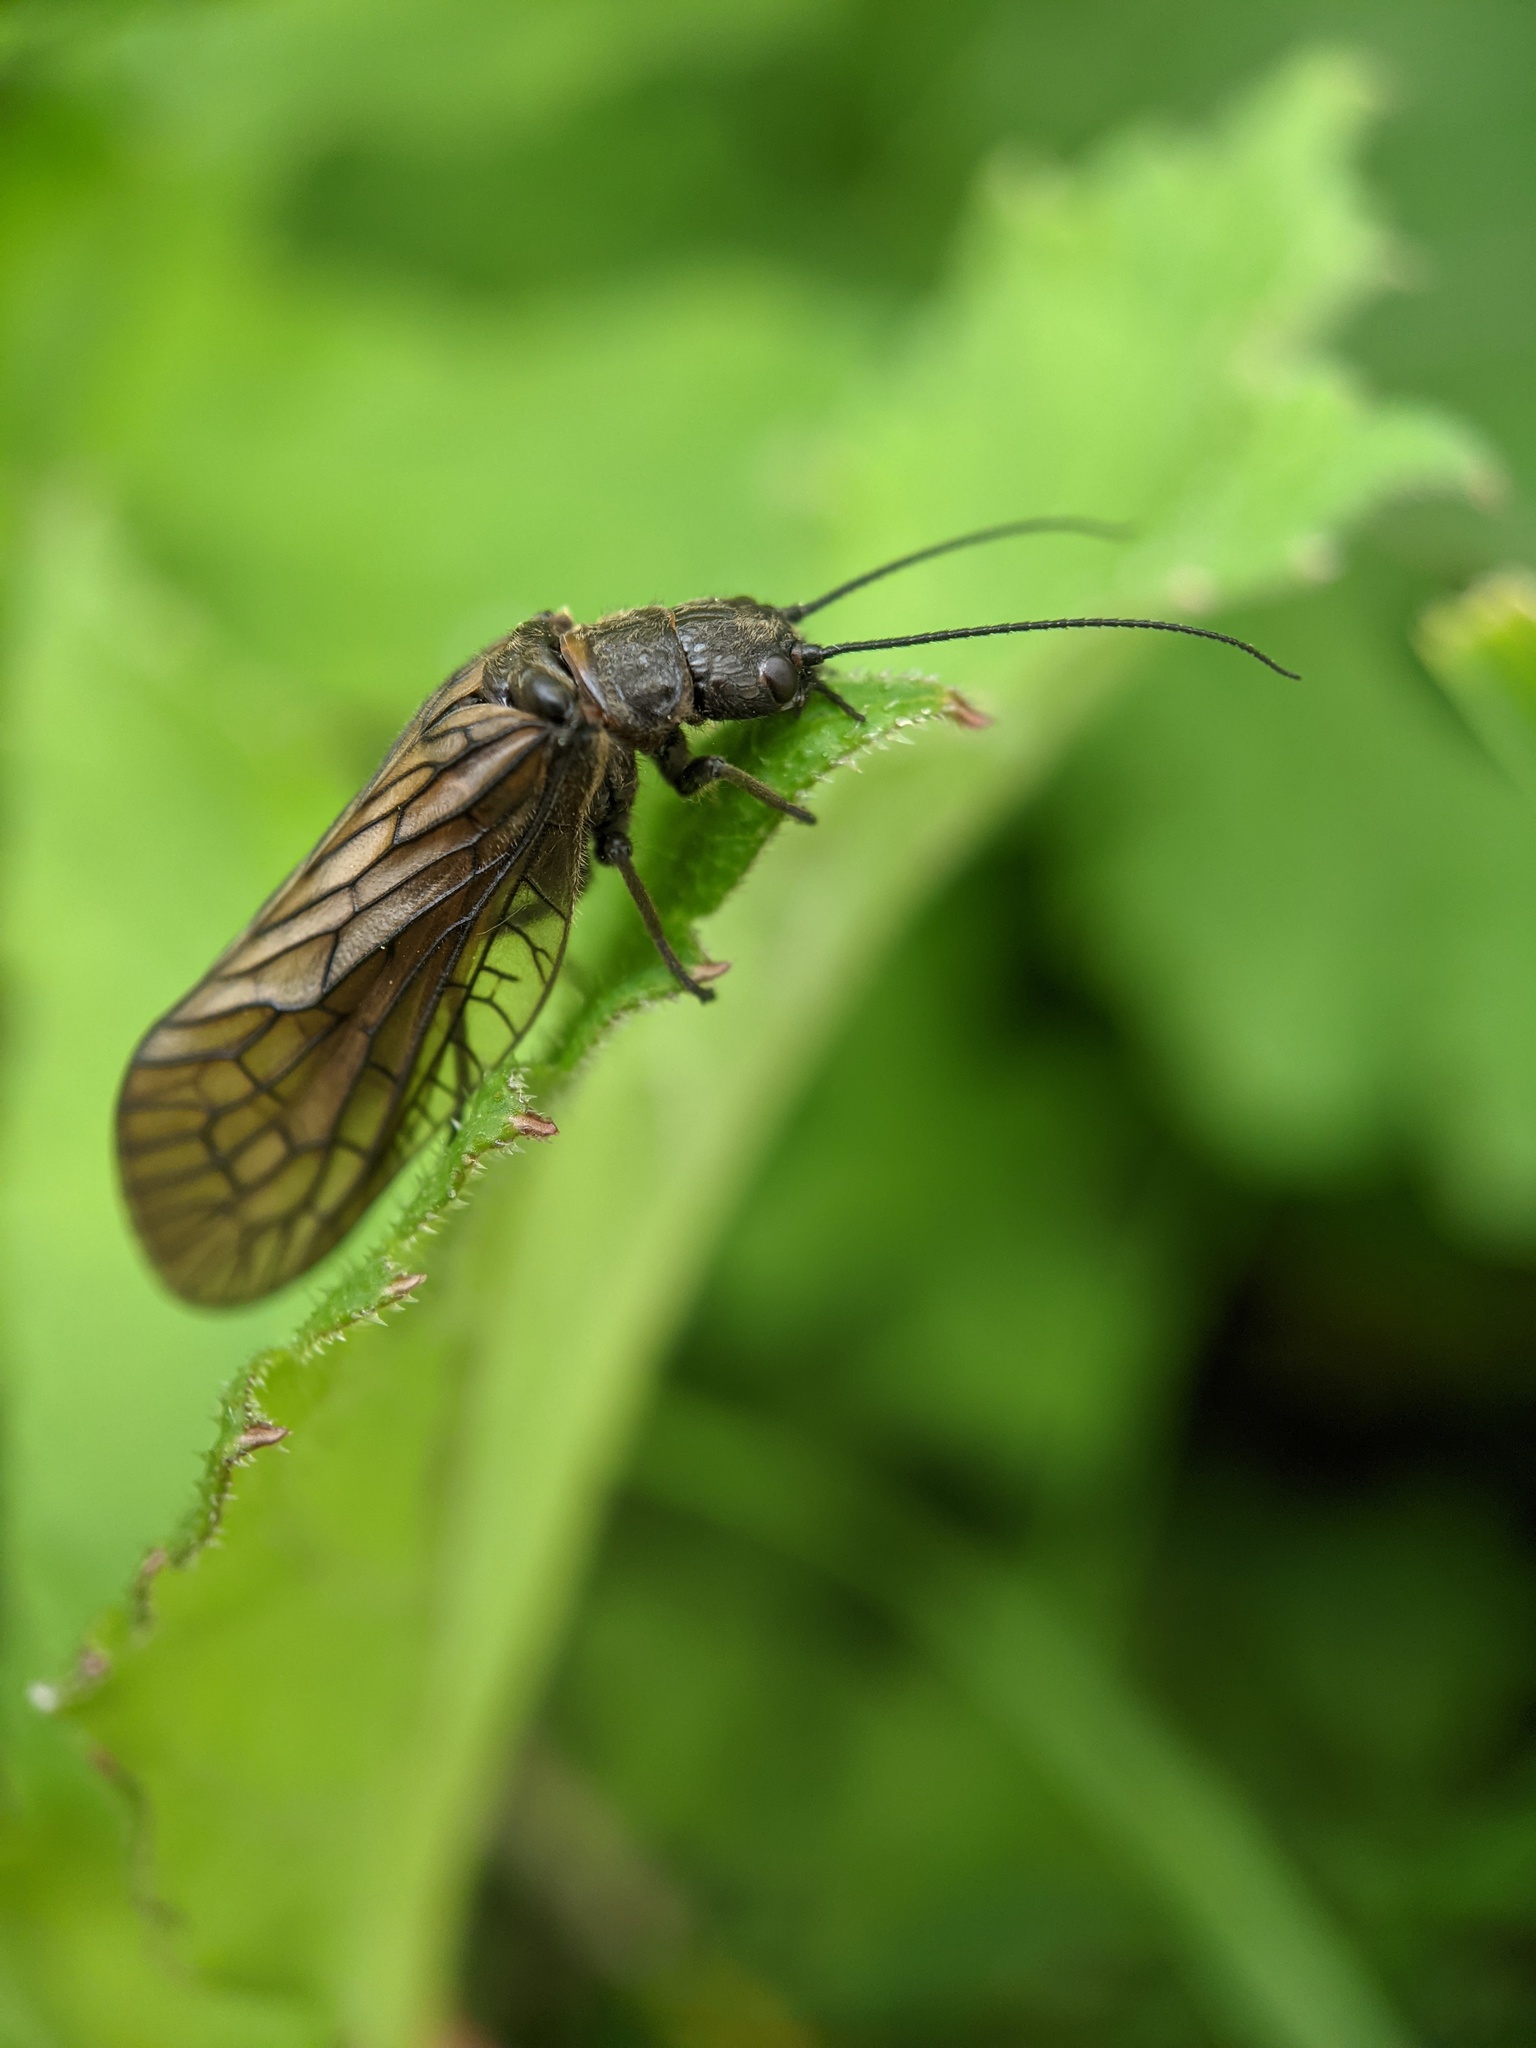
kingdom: Animalia
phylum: Arthropoda
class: Insecta
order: Megaloptera
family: Sialidae
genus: Sialis
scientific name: Sialis
